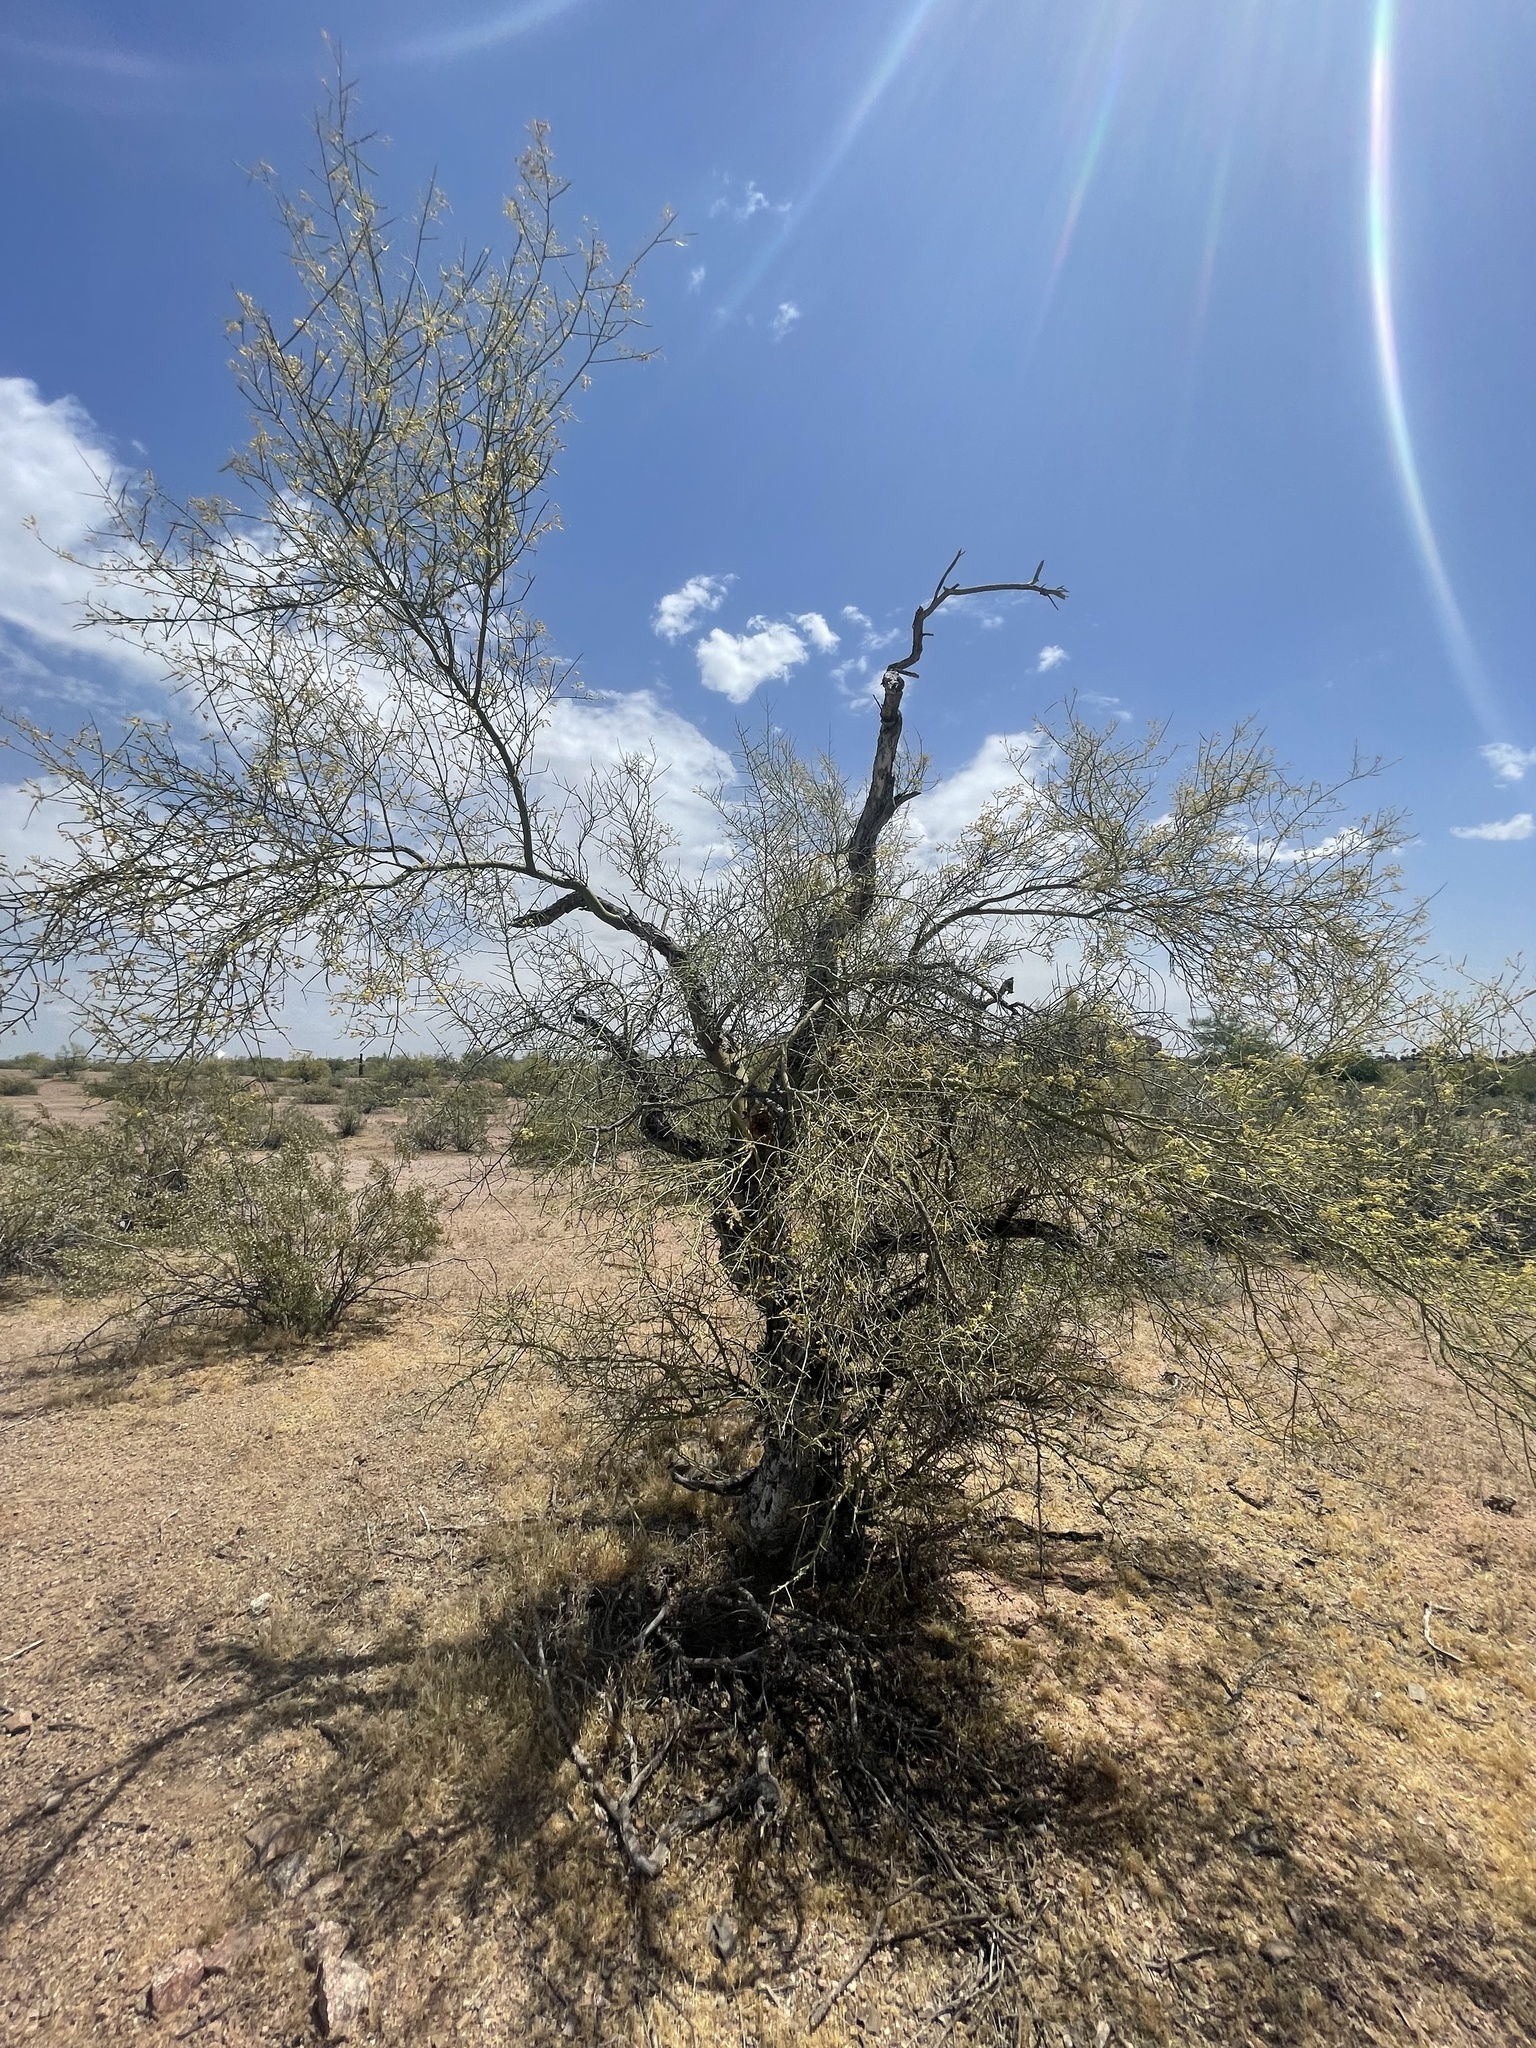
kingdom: Plantae
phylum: Tracheophyta
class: Magnoliopsida
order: Fabales
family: Fabaceae
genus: Parkinsonia
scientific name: Parkinsonia microphylla
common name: Yellow paloverde
